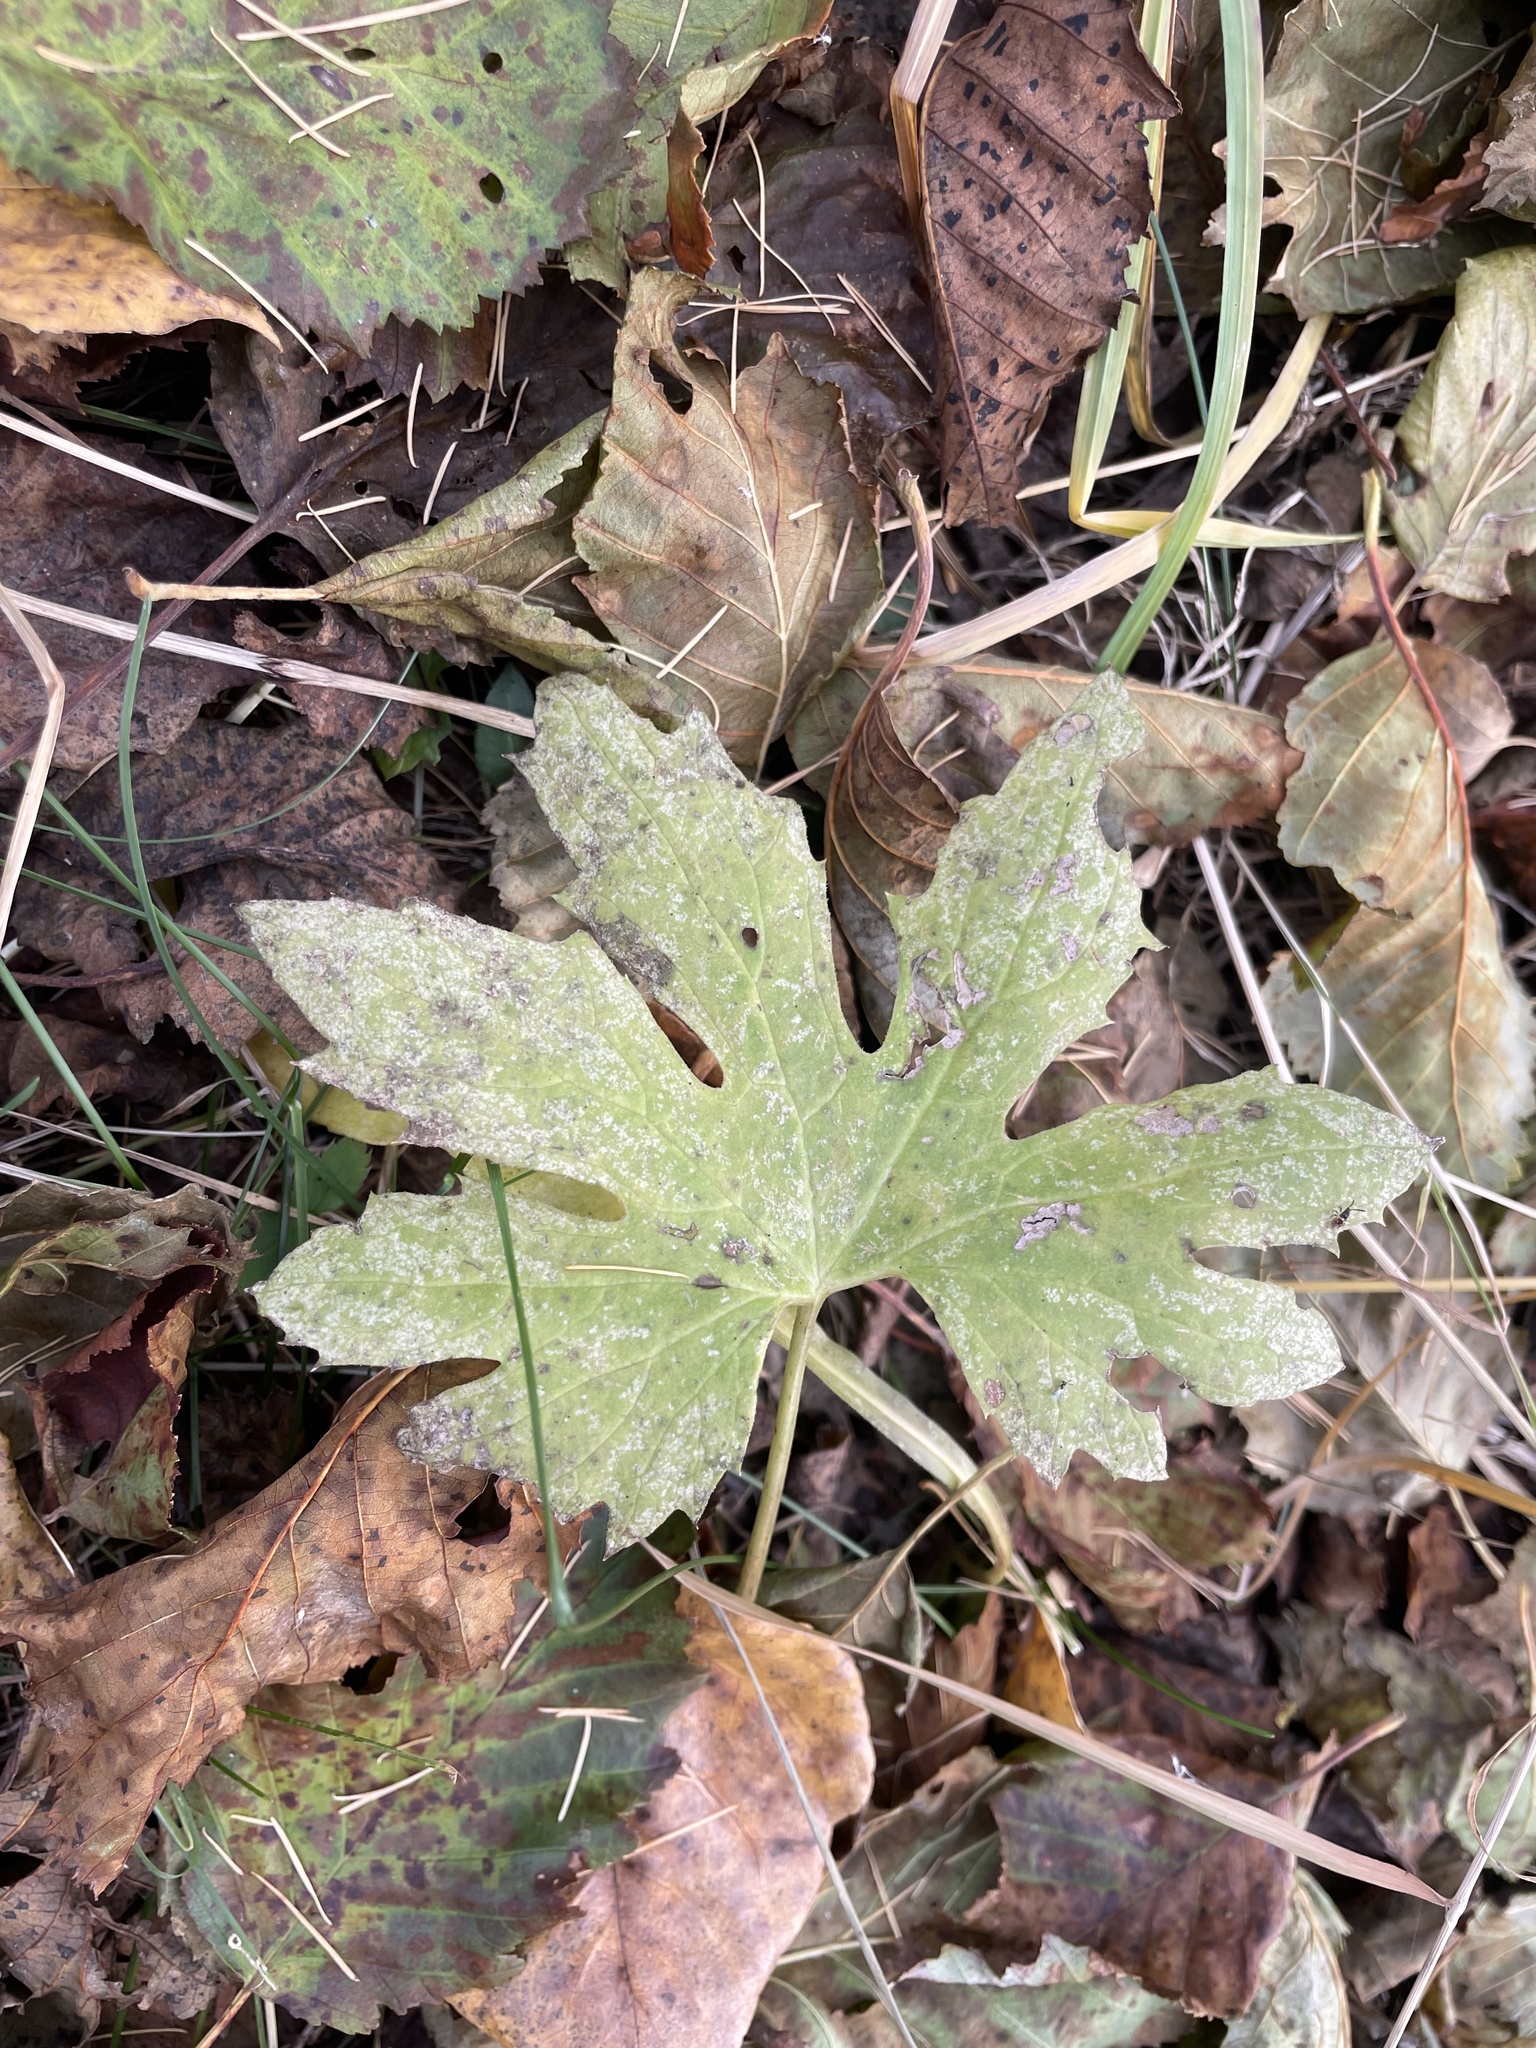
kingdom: Plantae
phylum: Tracheophyta
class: Magnoliopsida
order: Asterales
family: Asteraceae
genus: Petasites
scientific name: Petasites frigidus
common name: Arctic butterbur
